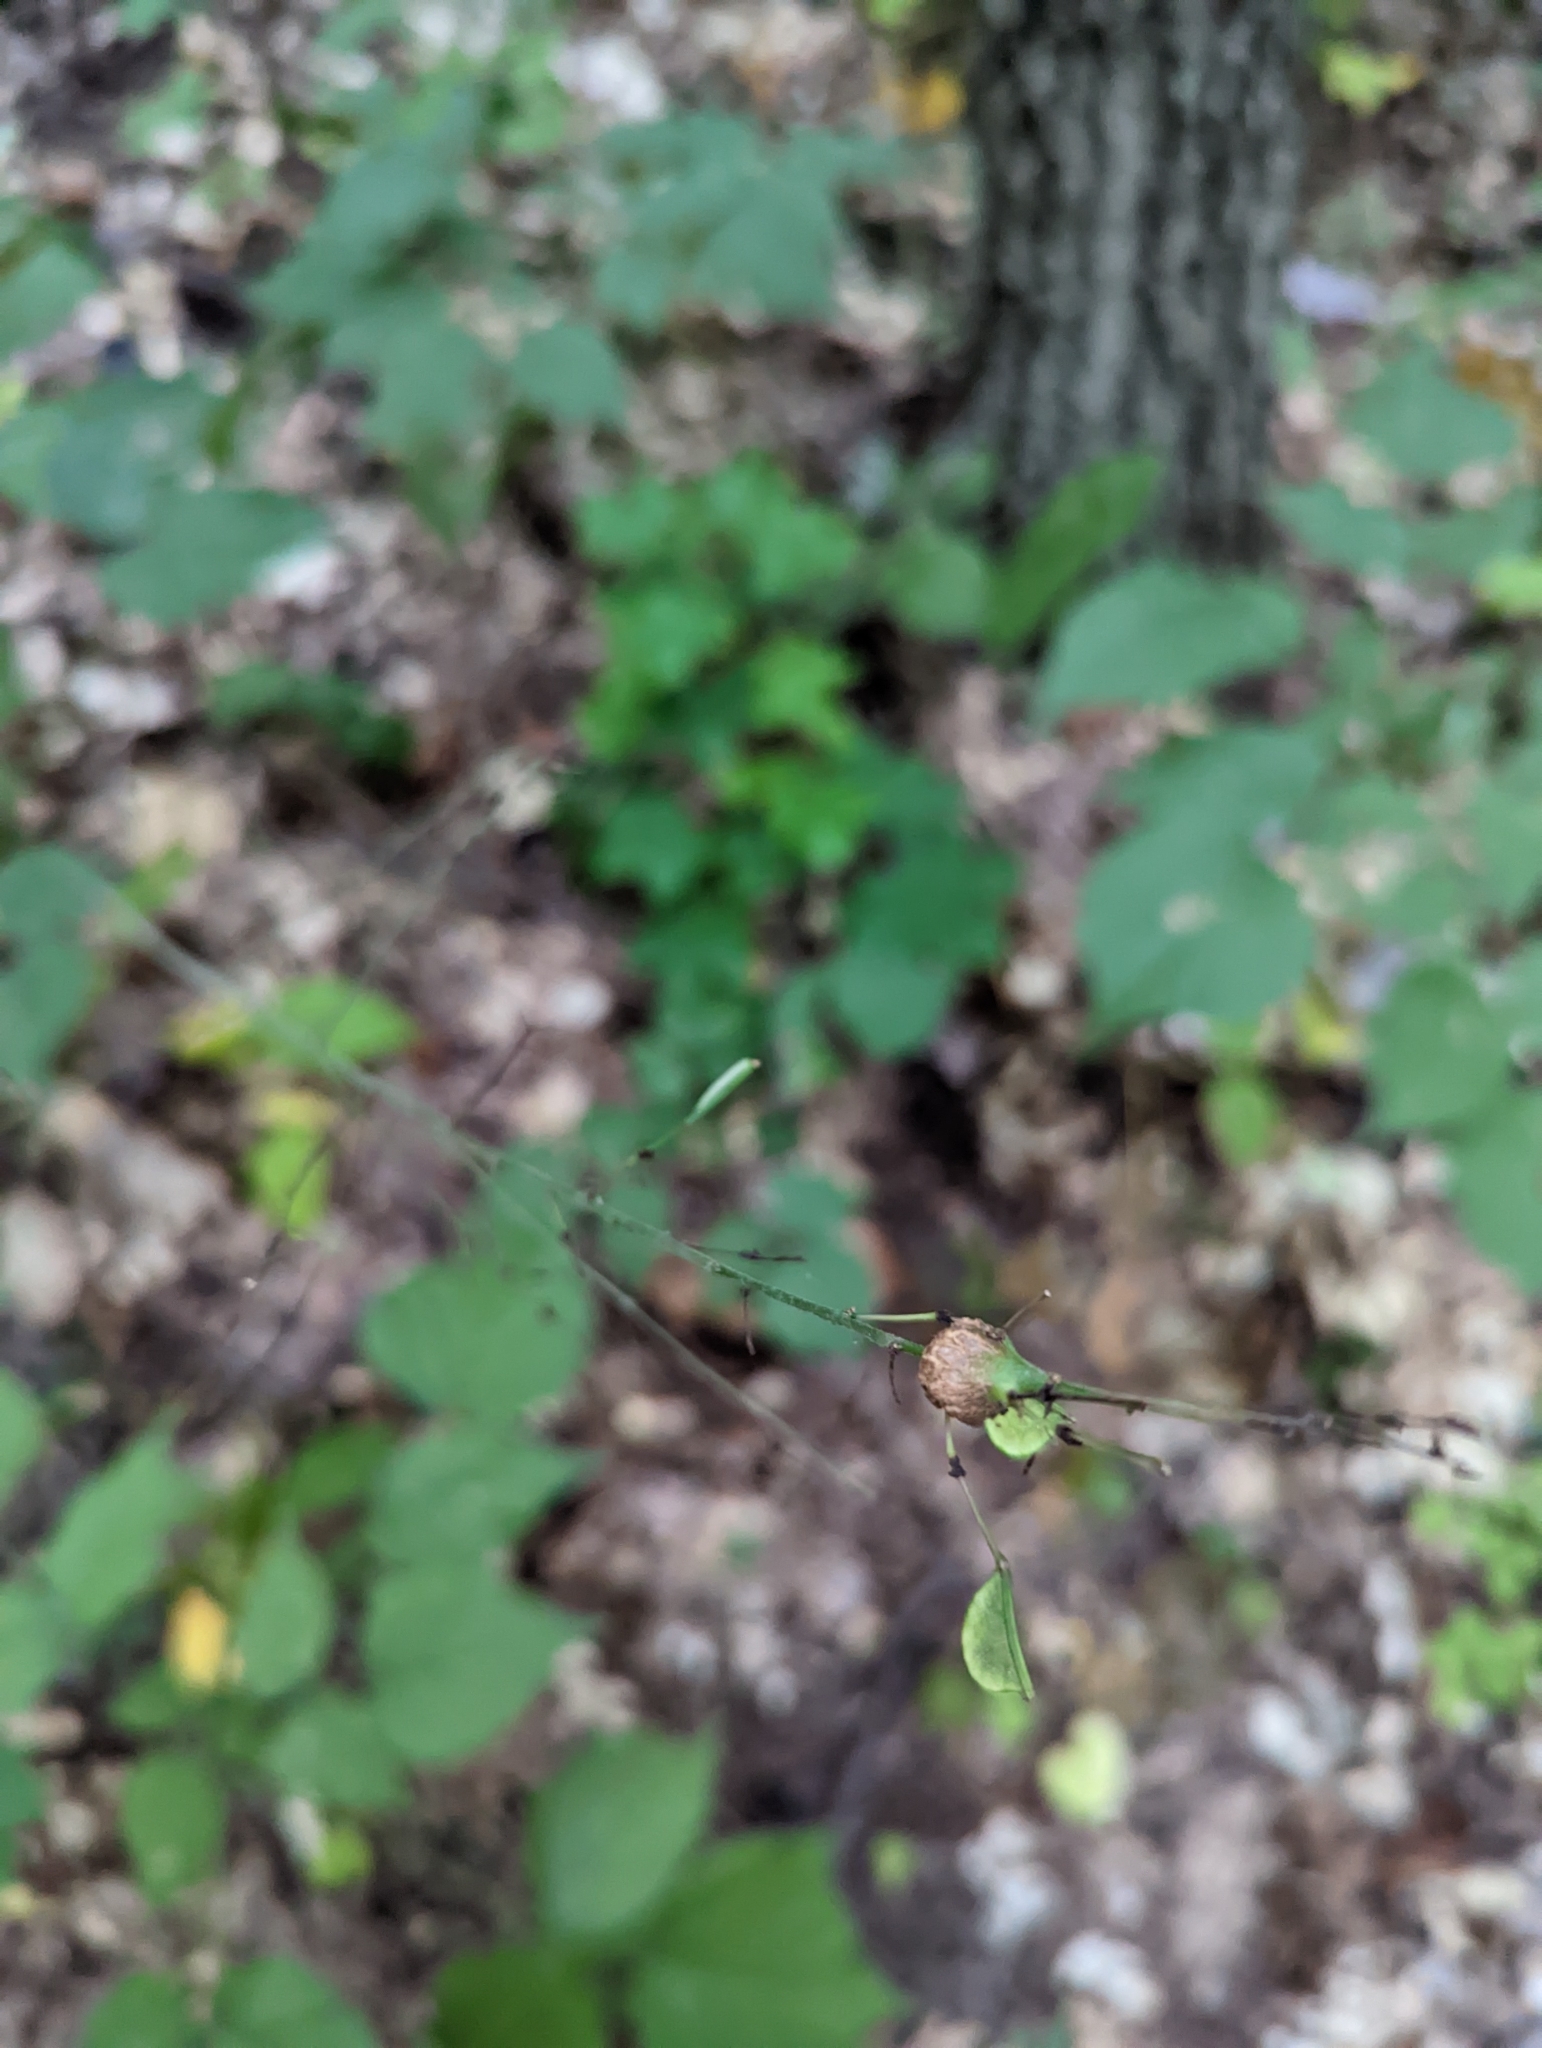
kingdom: Plantae
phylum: Tracheophyta
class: Magnoliopsida
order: Fabales
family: Fabaceae
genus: Hylodesmum
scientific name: Hylodesmum glutinosum
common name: Clustered-leaved tick-trefoil
